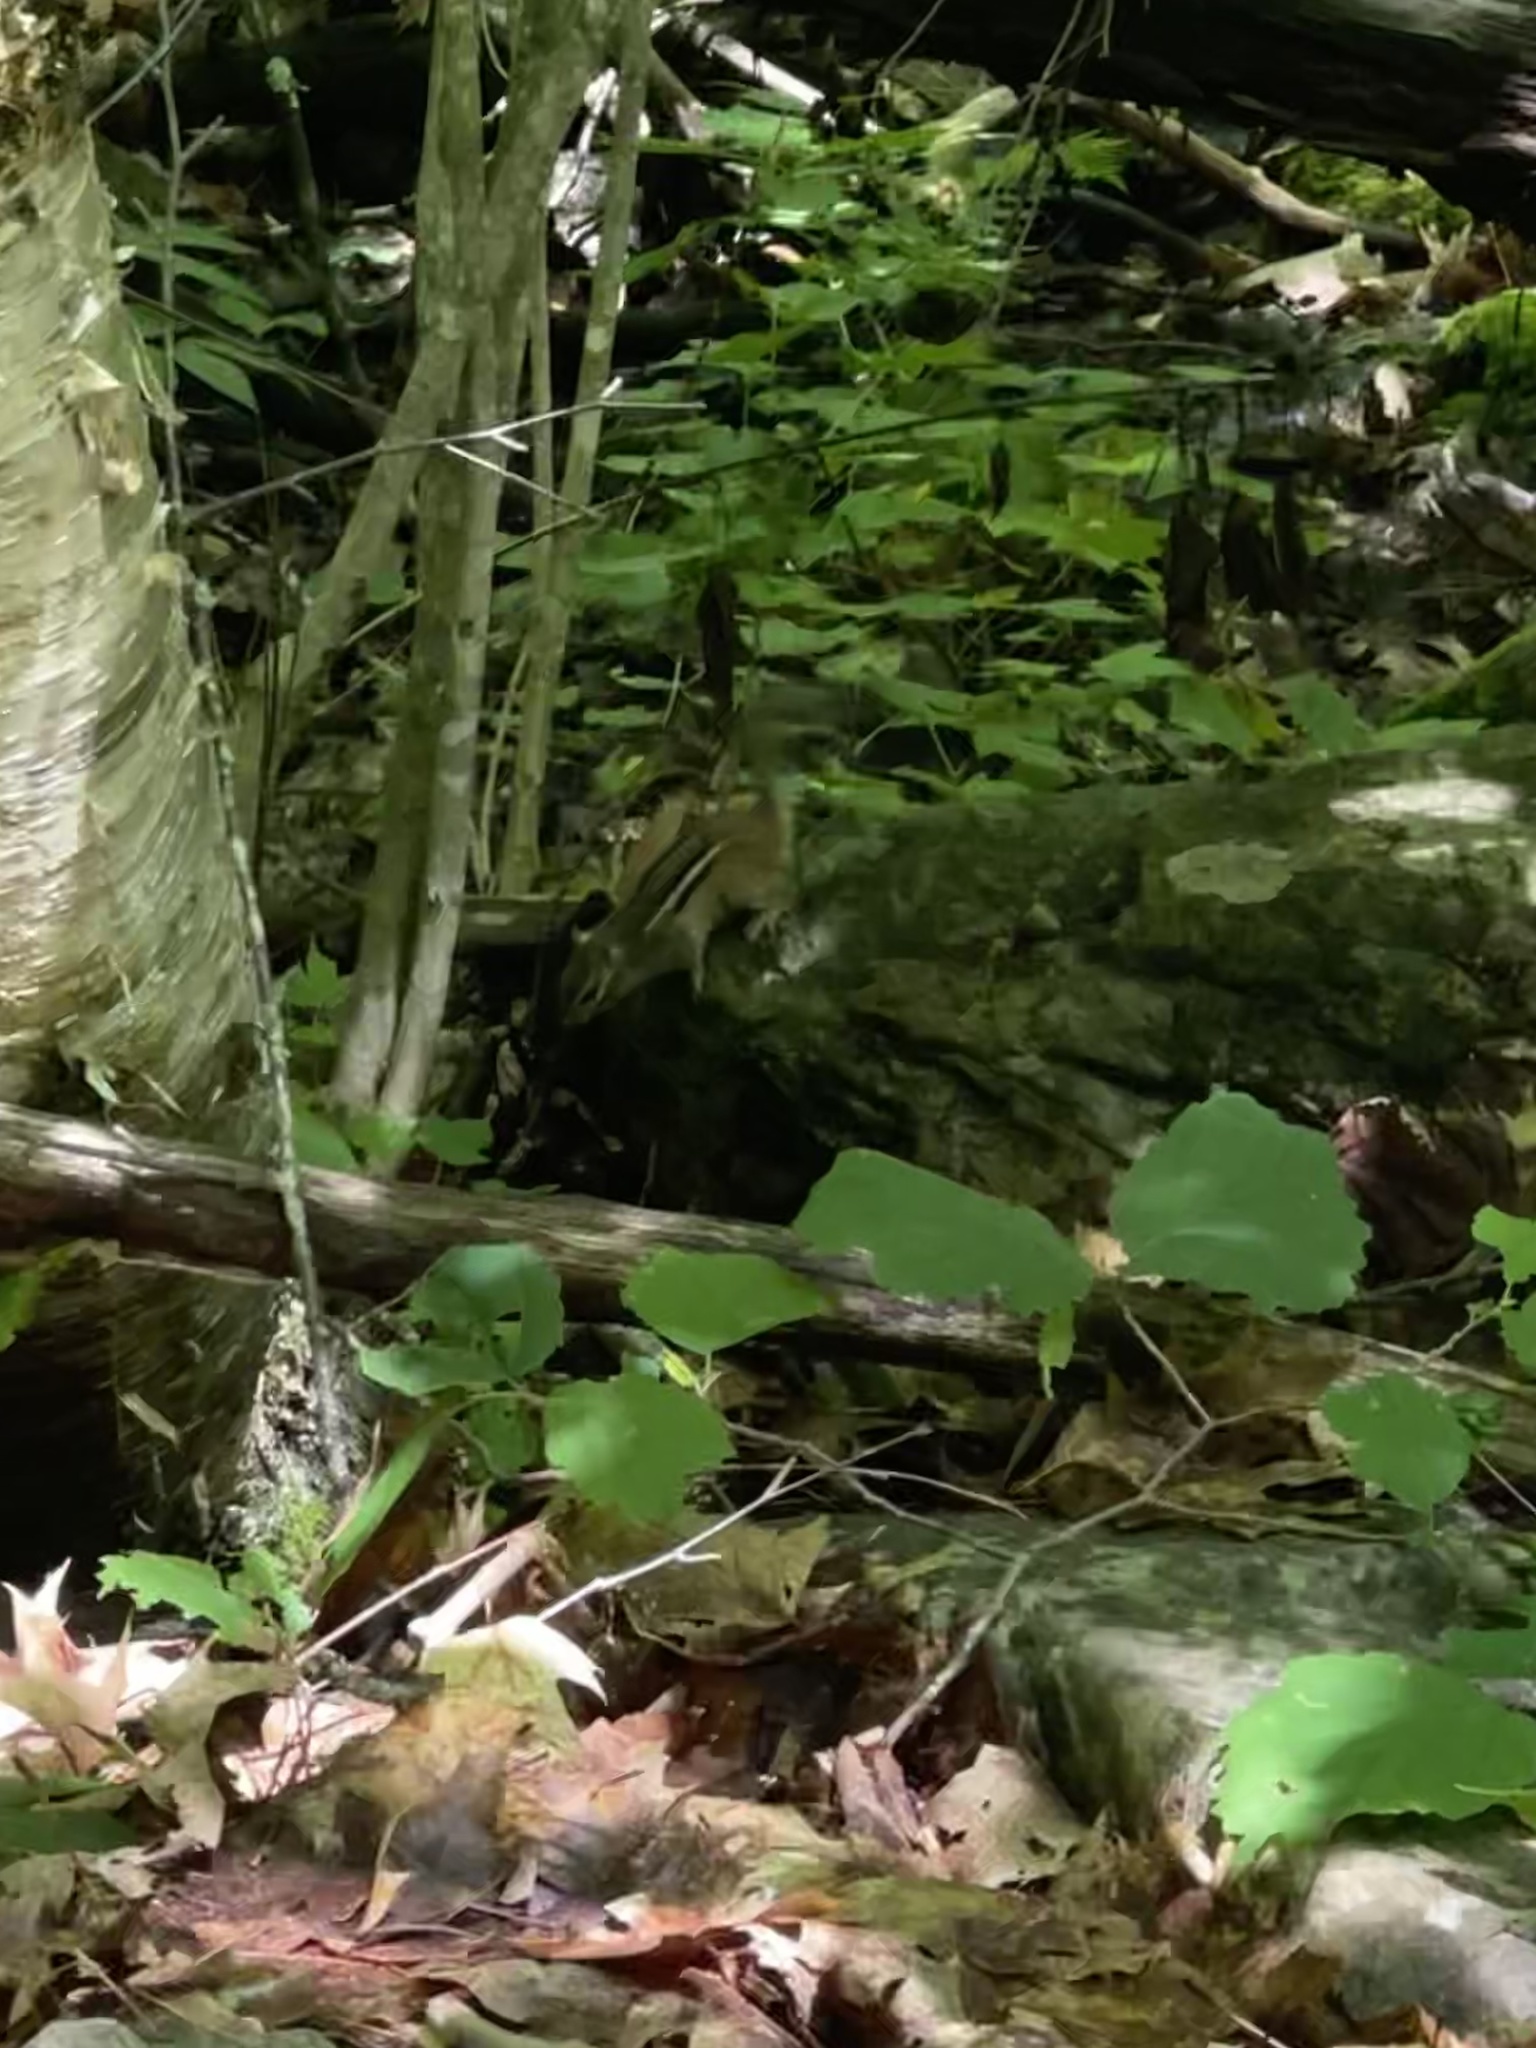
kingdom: Animalia
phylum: Chordata
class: Mammalia
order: Rodentia
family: Sciuridae
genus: Tamias
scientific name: Tamias striatus
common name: Eastern chipmunk
